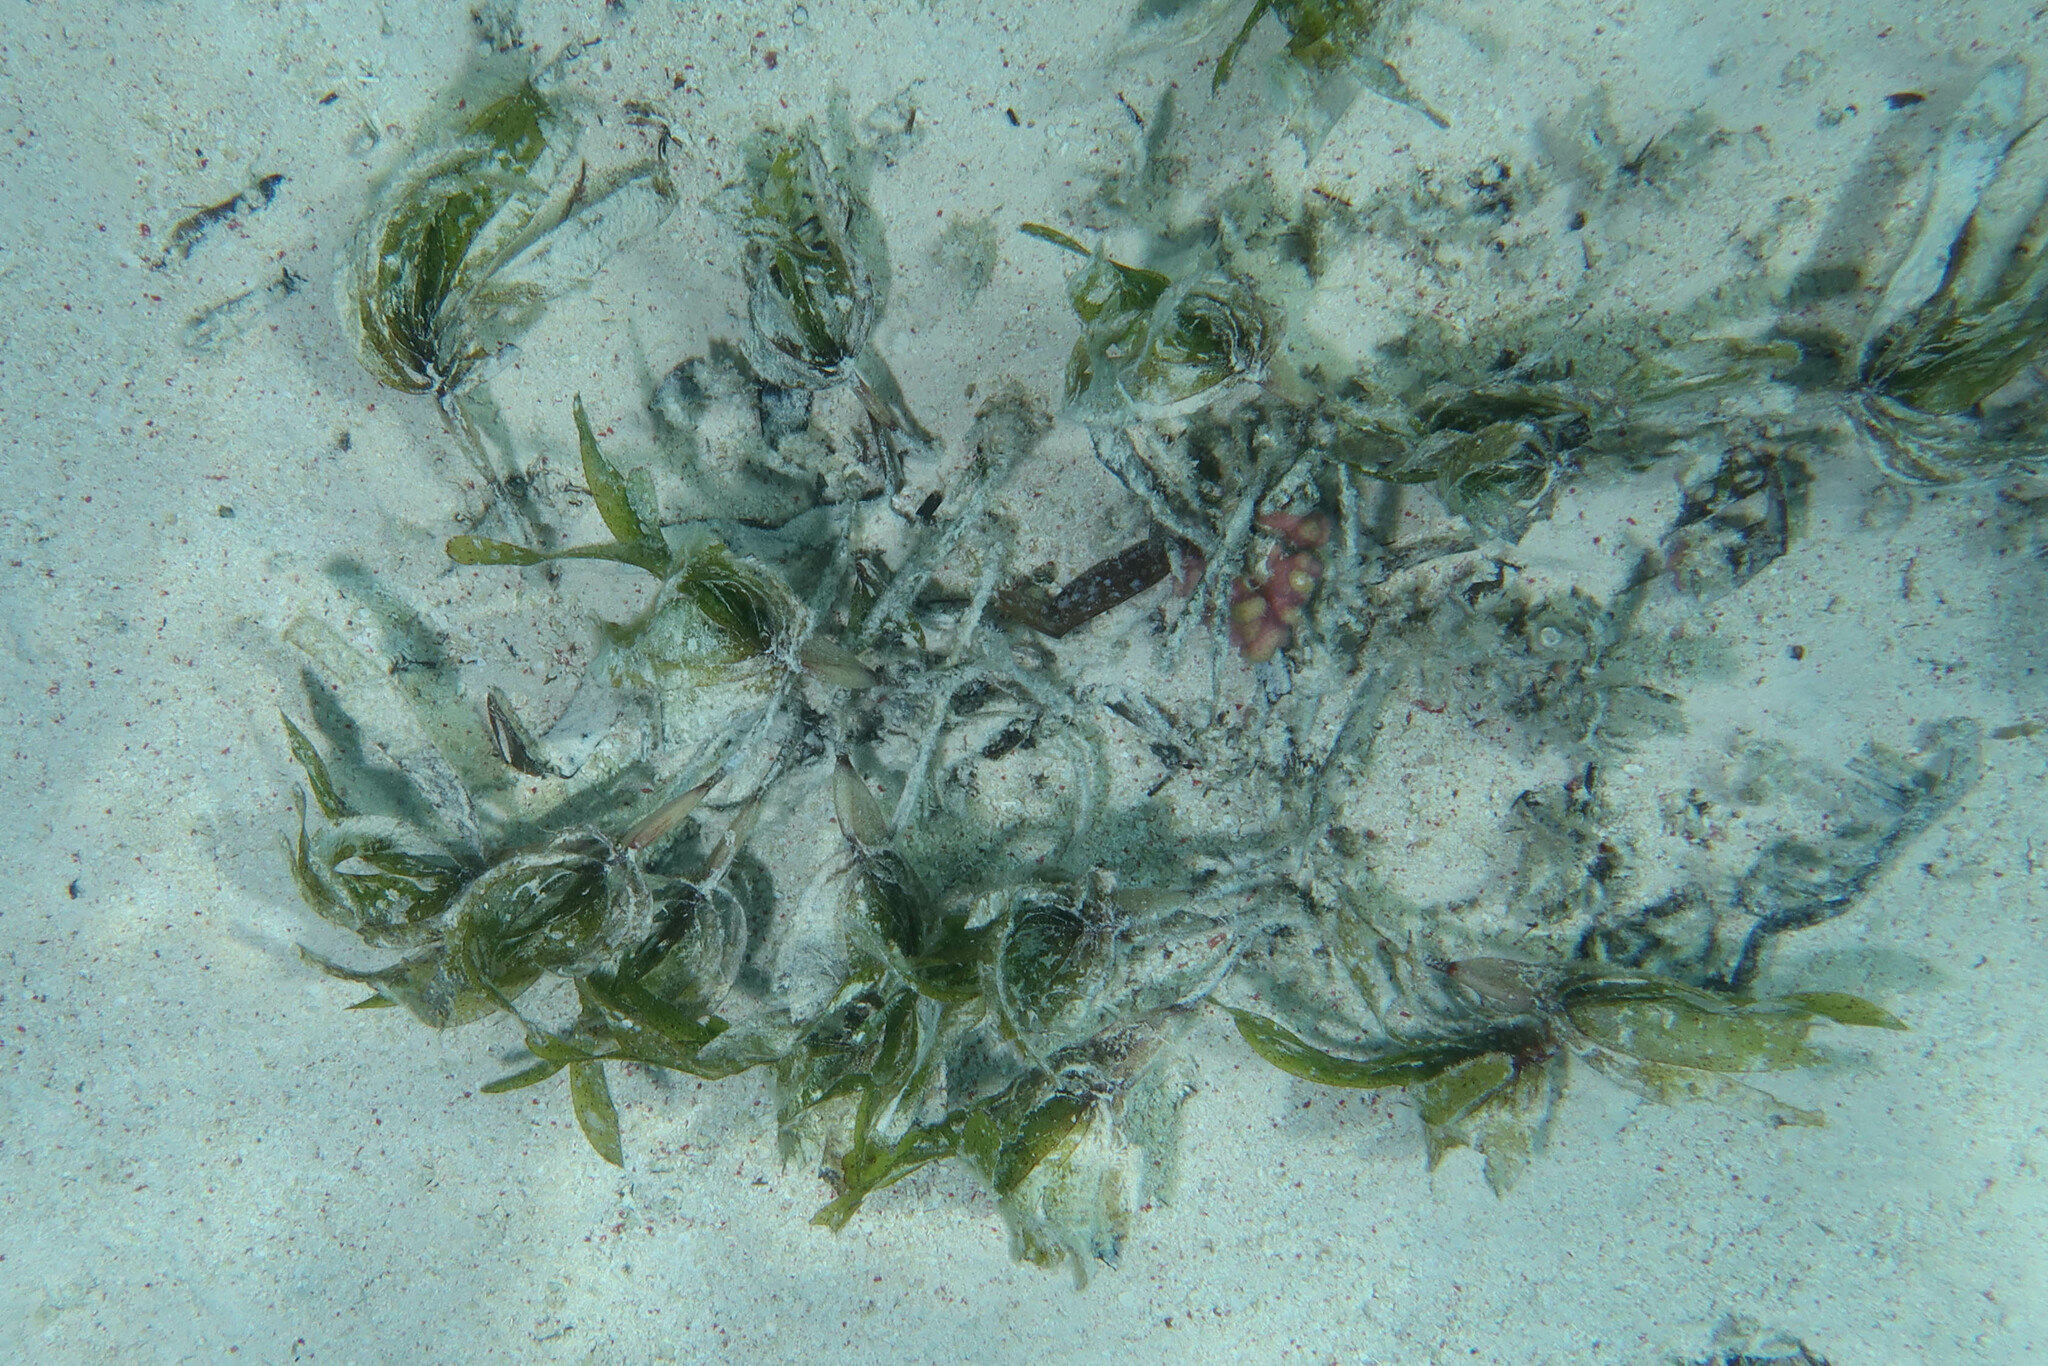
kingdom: Plantae
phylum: Tracheophyta
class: Liliopsida
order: Alismatales
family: Hydrocharitaceae
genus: Halophila
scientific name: Halophila stipulacea
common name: Species code: hs
